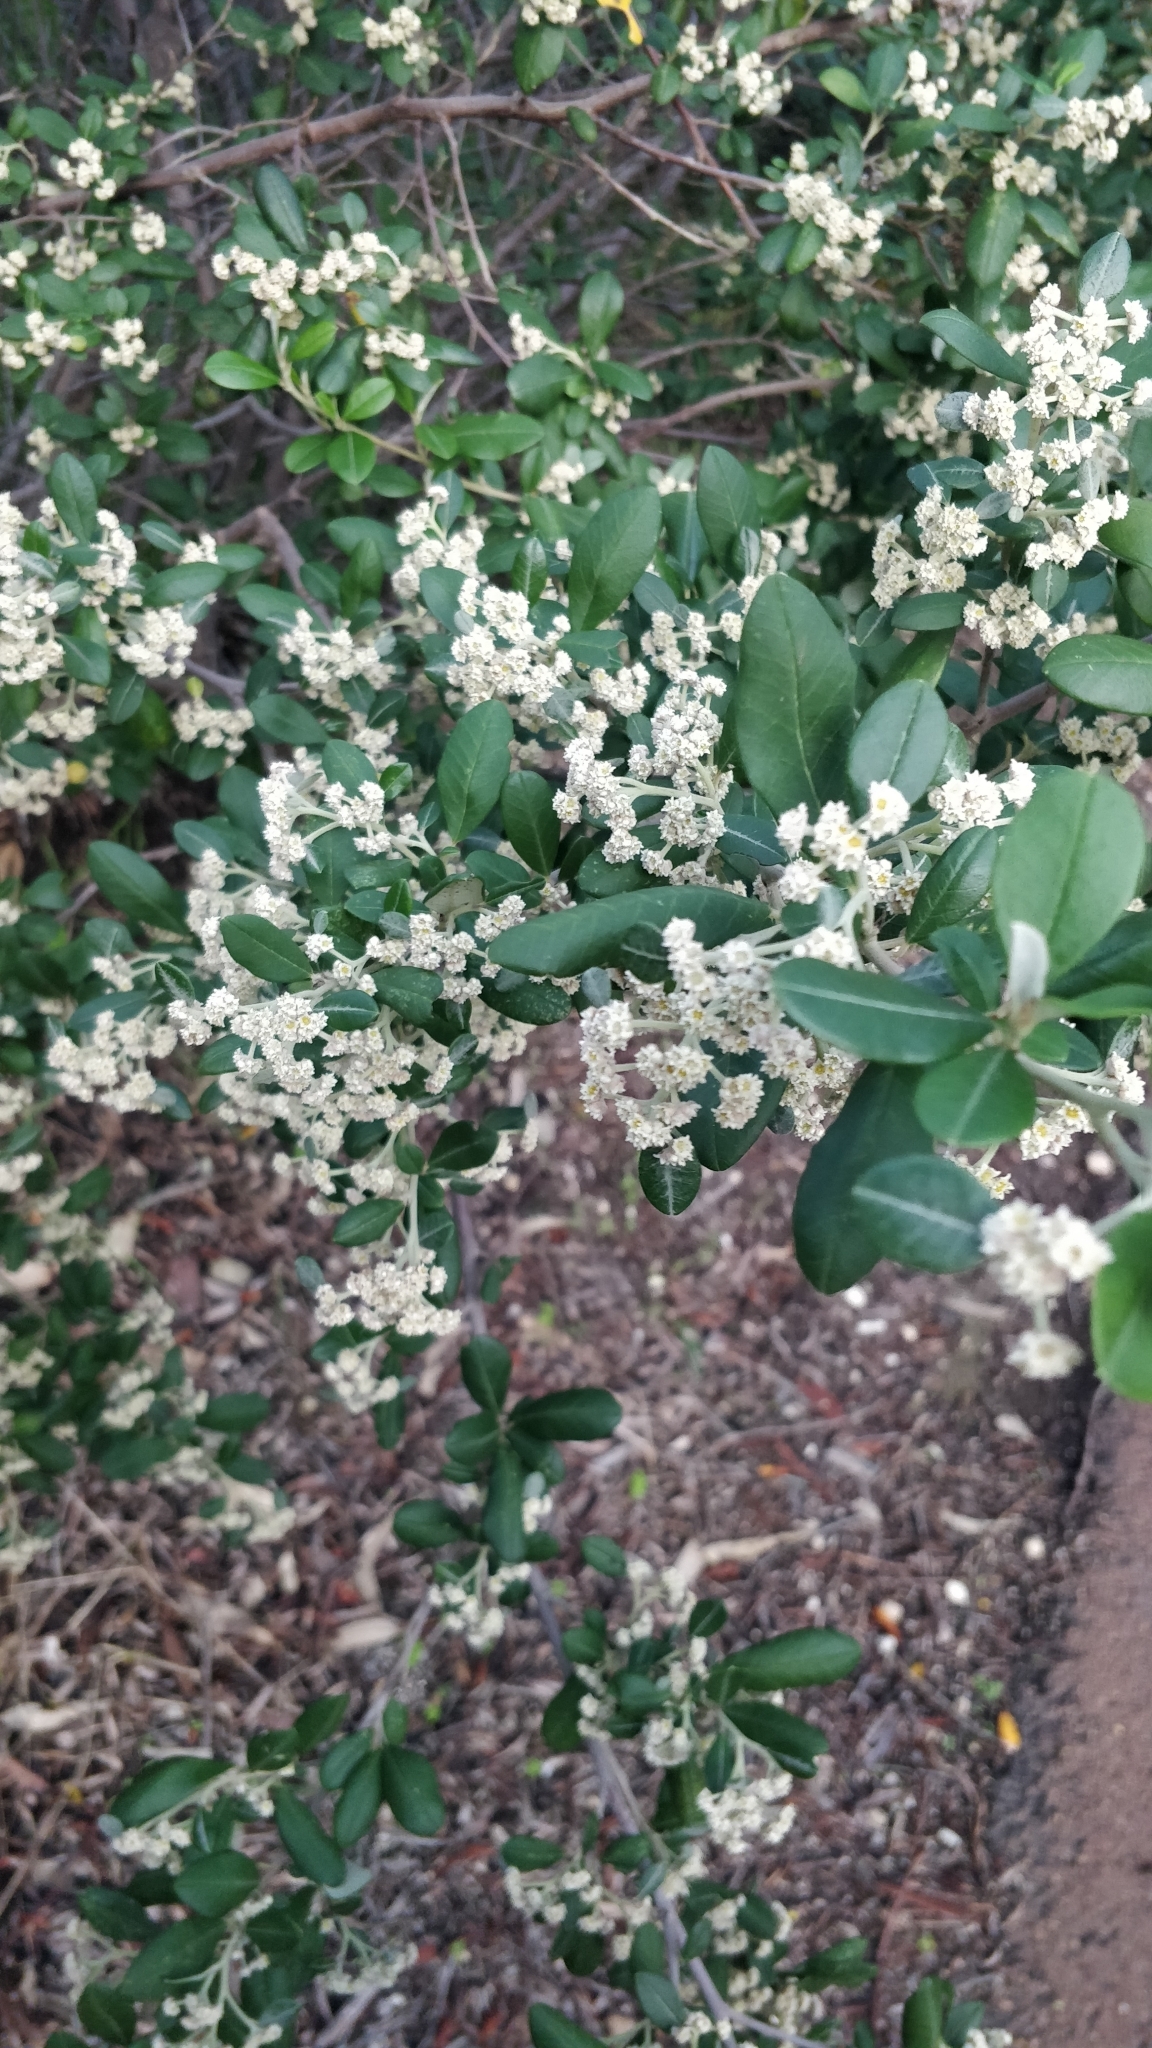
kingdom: Plantae
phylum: Tracheophyta
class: Magnoliopsida
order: Rosales
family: Rhamnaceae
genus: Spyridium
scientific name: Spyridium globulosum
